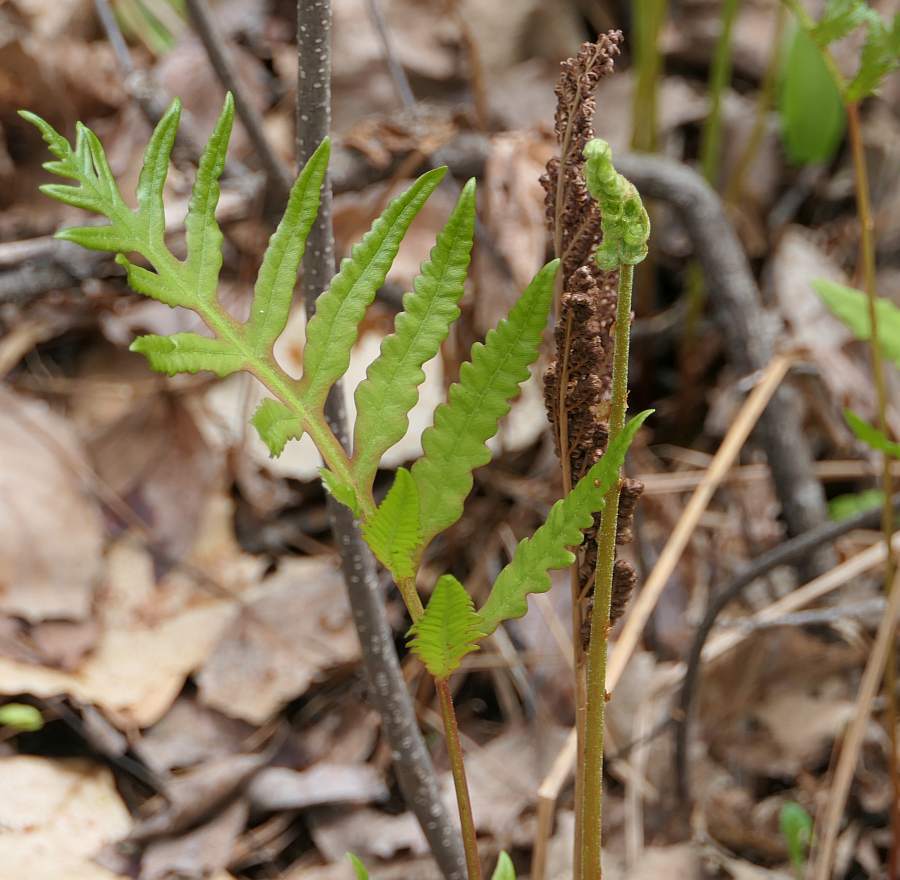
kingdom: Plantae
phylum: Tracheophyta
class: Polypodiopsida
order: Polypodiales
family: Onocleaceae
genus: Onoclea
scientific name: Onoclea sensibilis
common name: Sensitive fern
